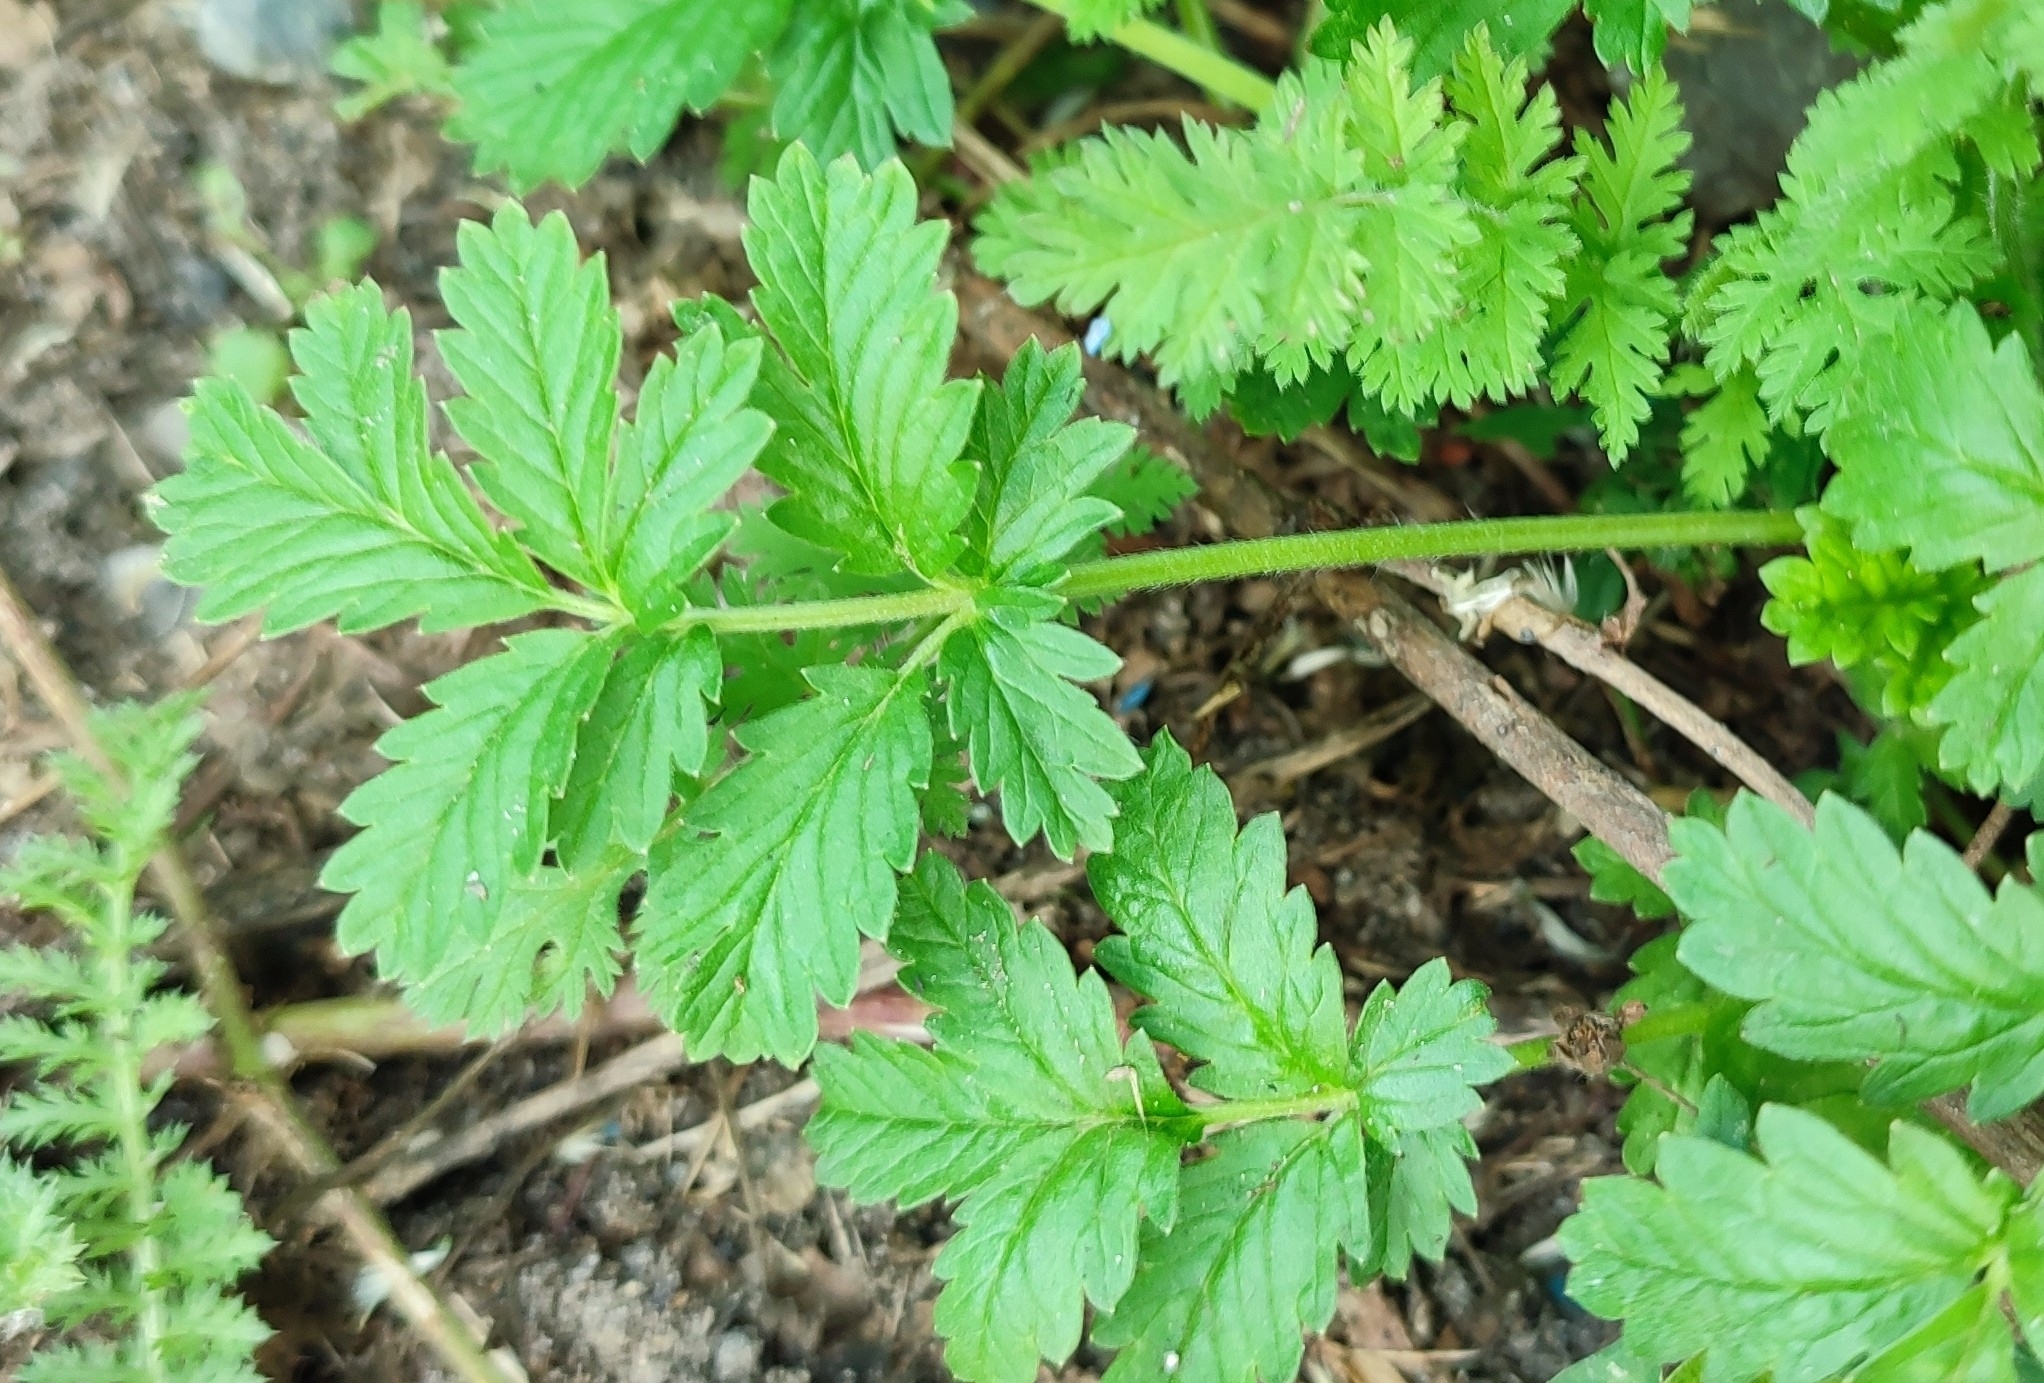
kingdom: Plantae
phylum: Tracheophyta
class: Magnoliopsida
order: Rosales
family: Rosaceae
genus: Potentilla
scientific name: Potentilla tobolensis
